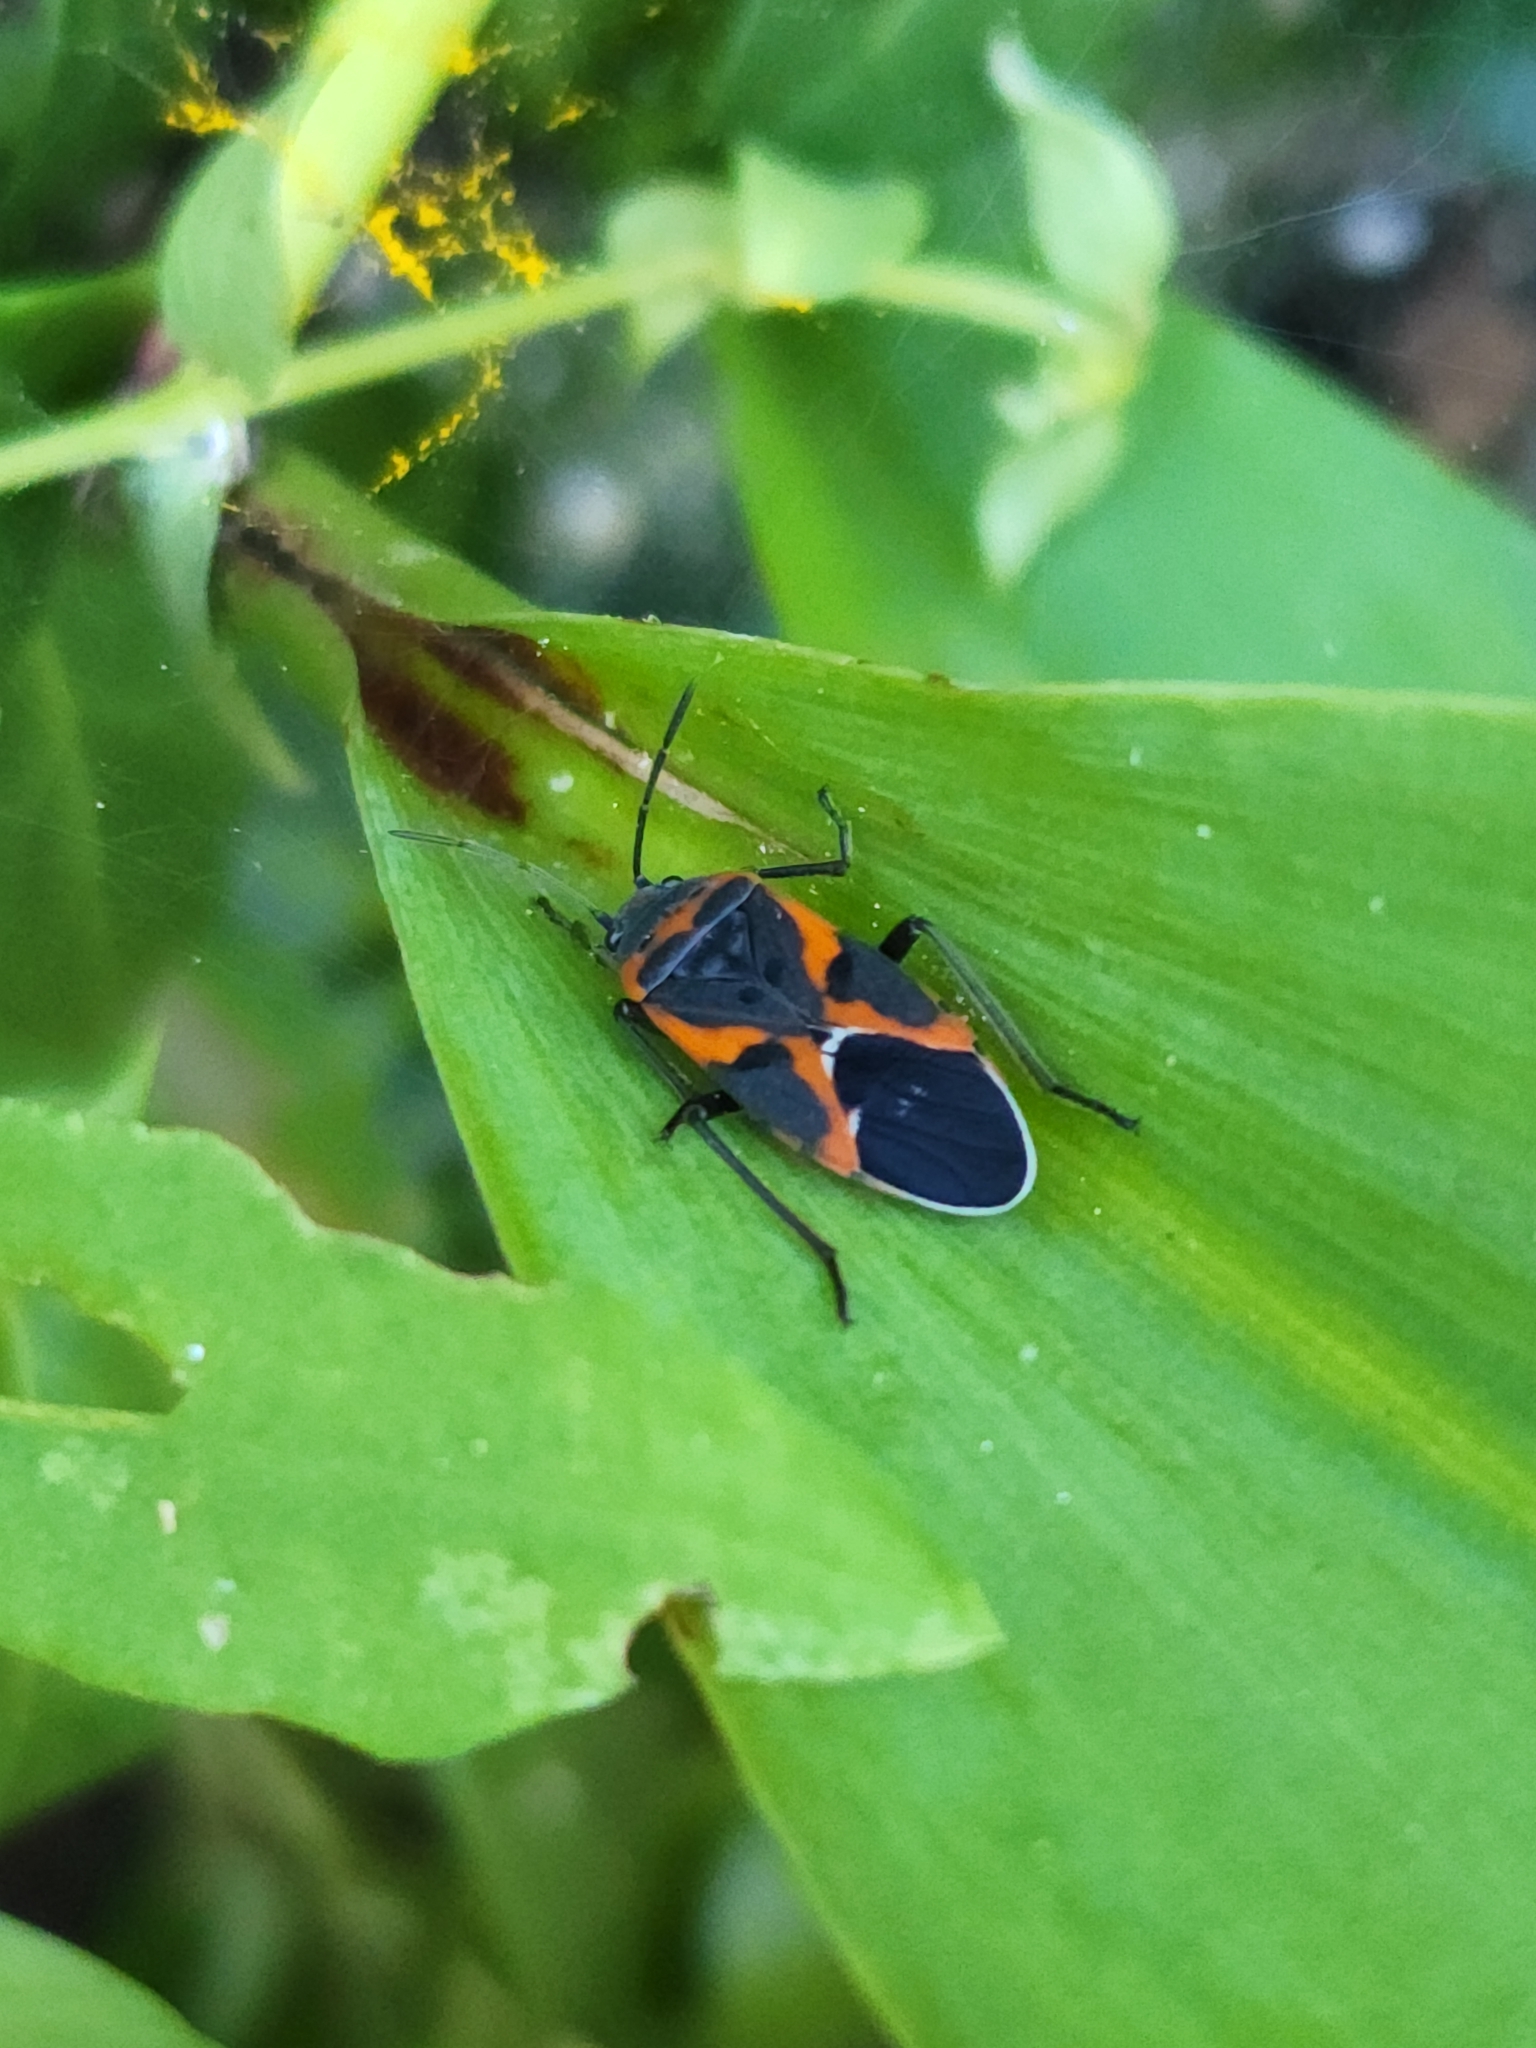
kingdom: Animalia
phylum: Arthropoda
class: Insecta
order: Hemiptera
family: Lygaeidae
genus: Lygaeus
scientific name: Lygaeus kalmii
